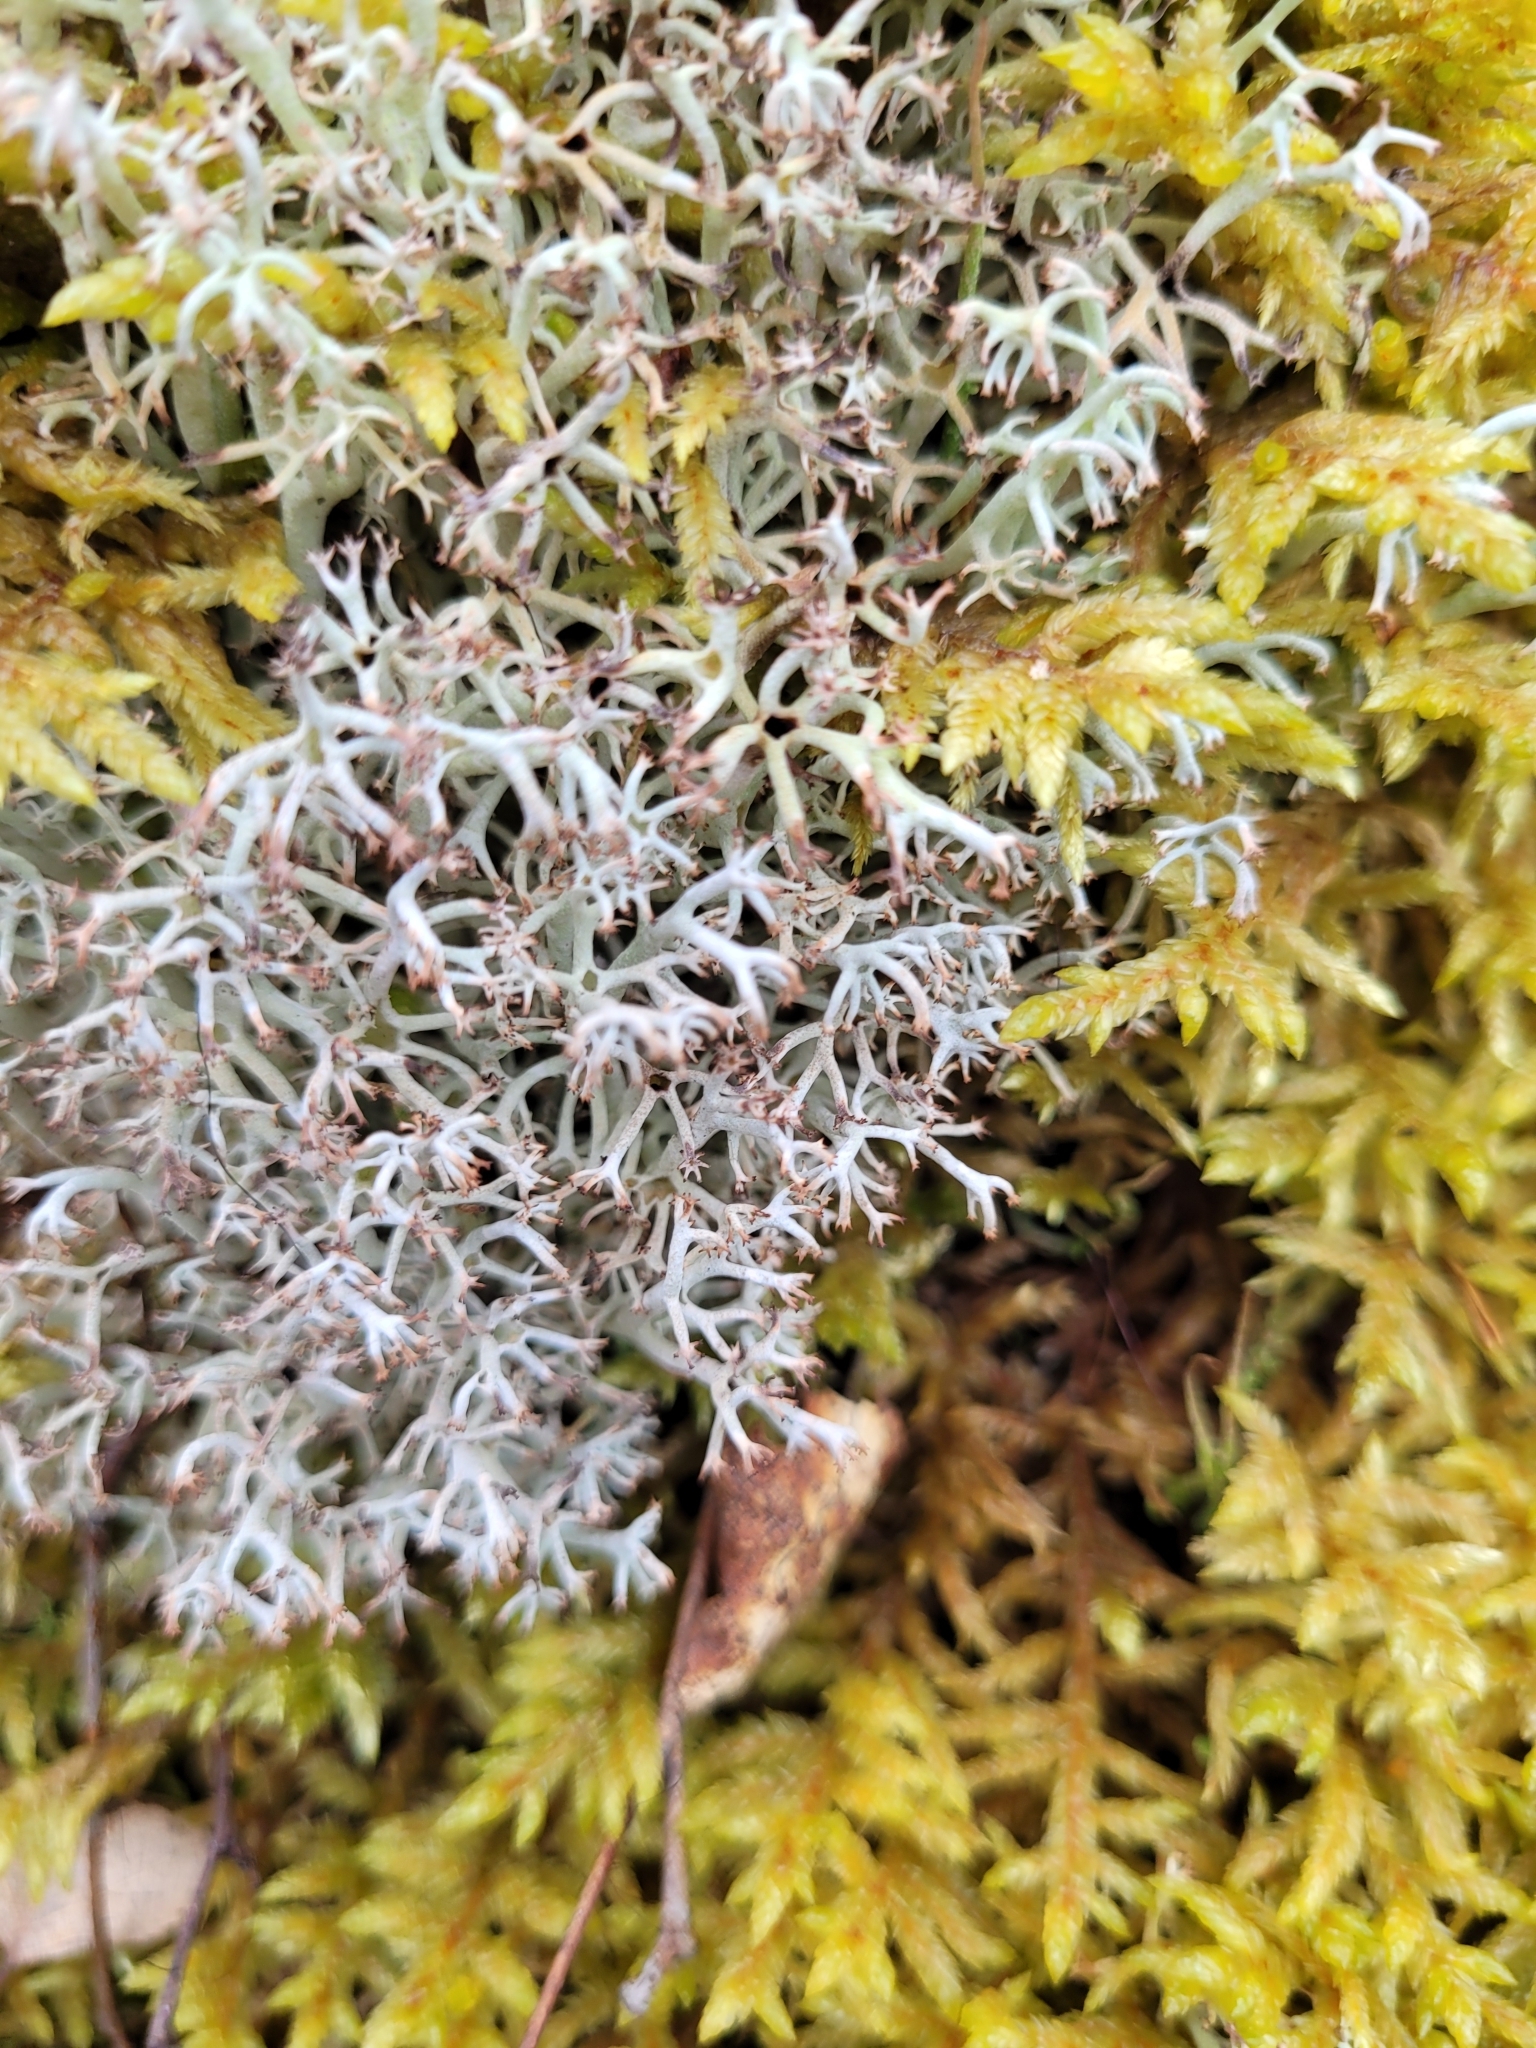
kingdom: Fungi
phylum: Ascomycota
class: Lecanoromycetes
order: Lecanorales
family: Cladoniaceae
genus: Cladonia
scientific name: Cladonia rangiferina
